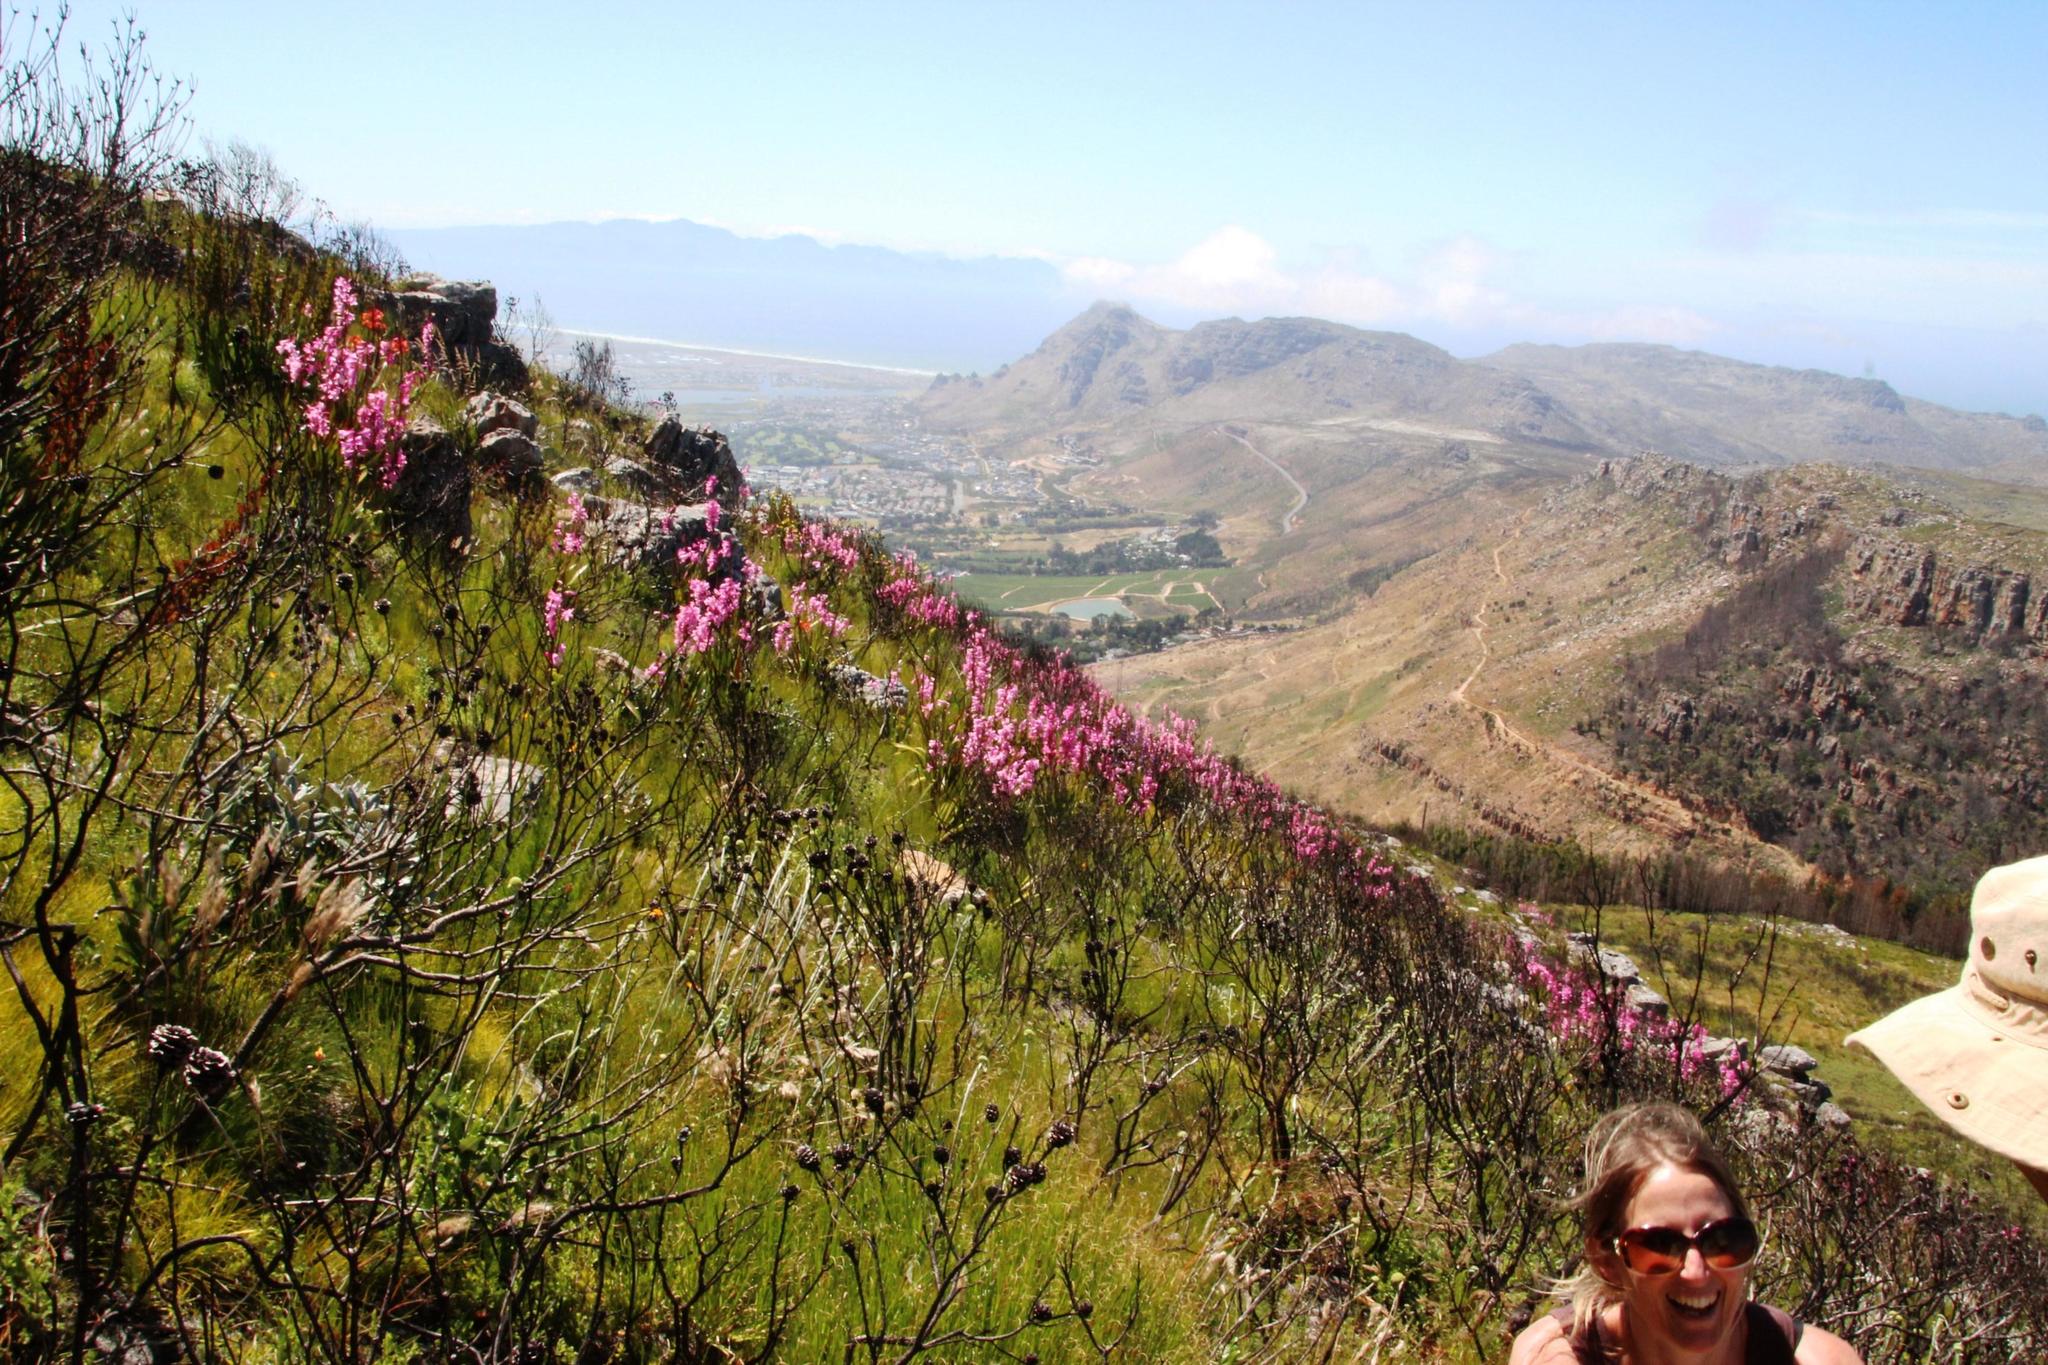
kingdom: Plantae
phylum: Tracheophyta
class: Liliopsida
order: Asparagales
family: Iridaceae
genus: Watsonia
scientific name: Watsonia borbonica
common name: Bugle-lily
